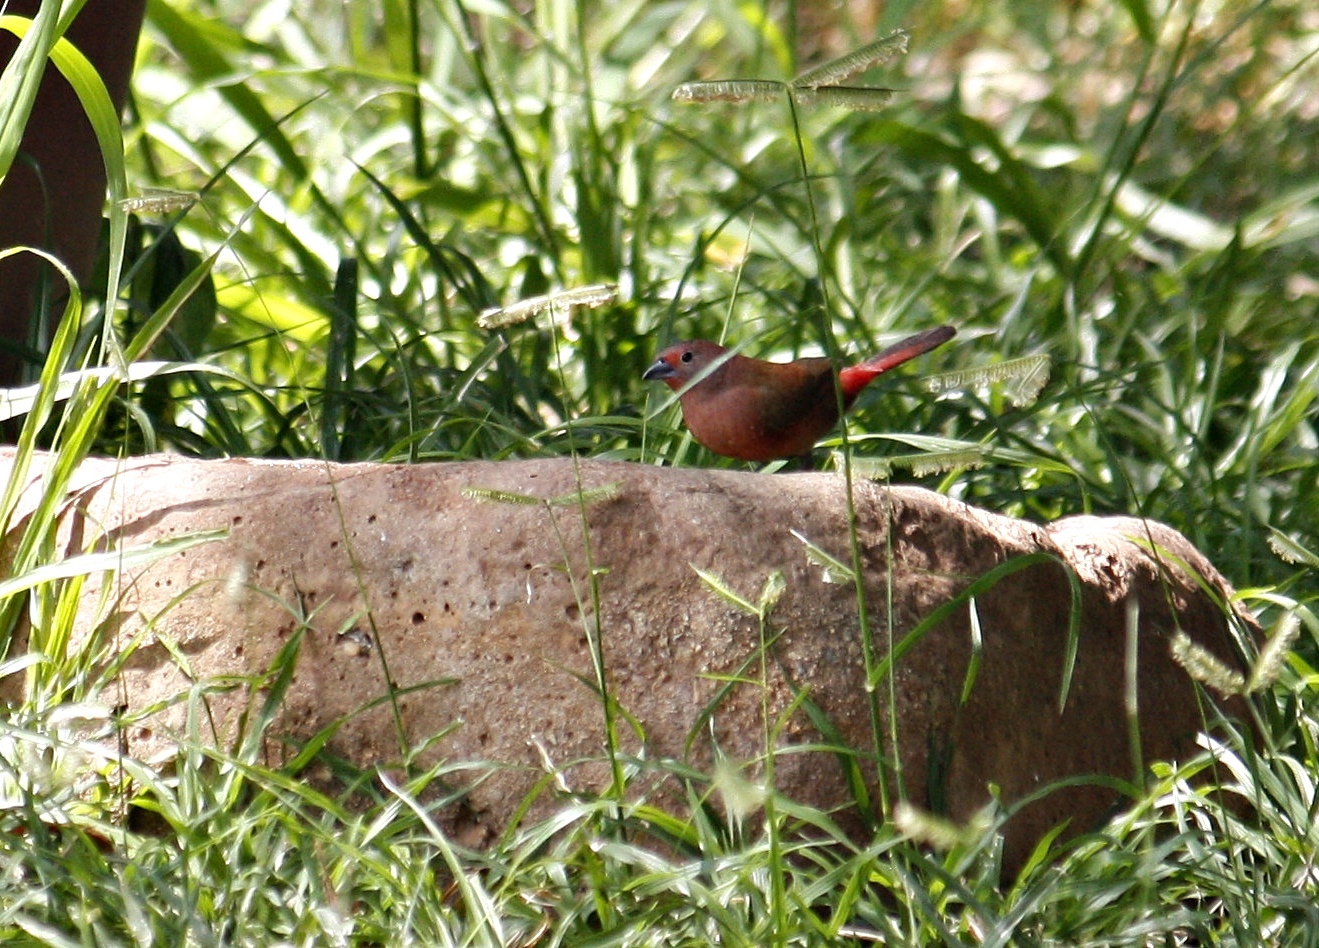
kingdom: Animalia
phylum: Chordata
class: Aves
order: Passeriformes
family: Estrildidae
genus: Lagonosticta
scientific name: Lagonosticta rhodopareia
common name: Jameson's firefinch
